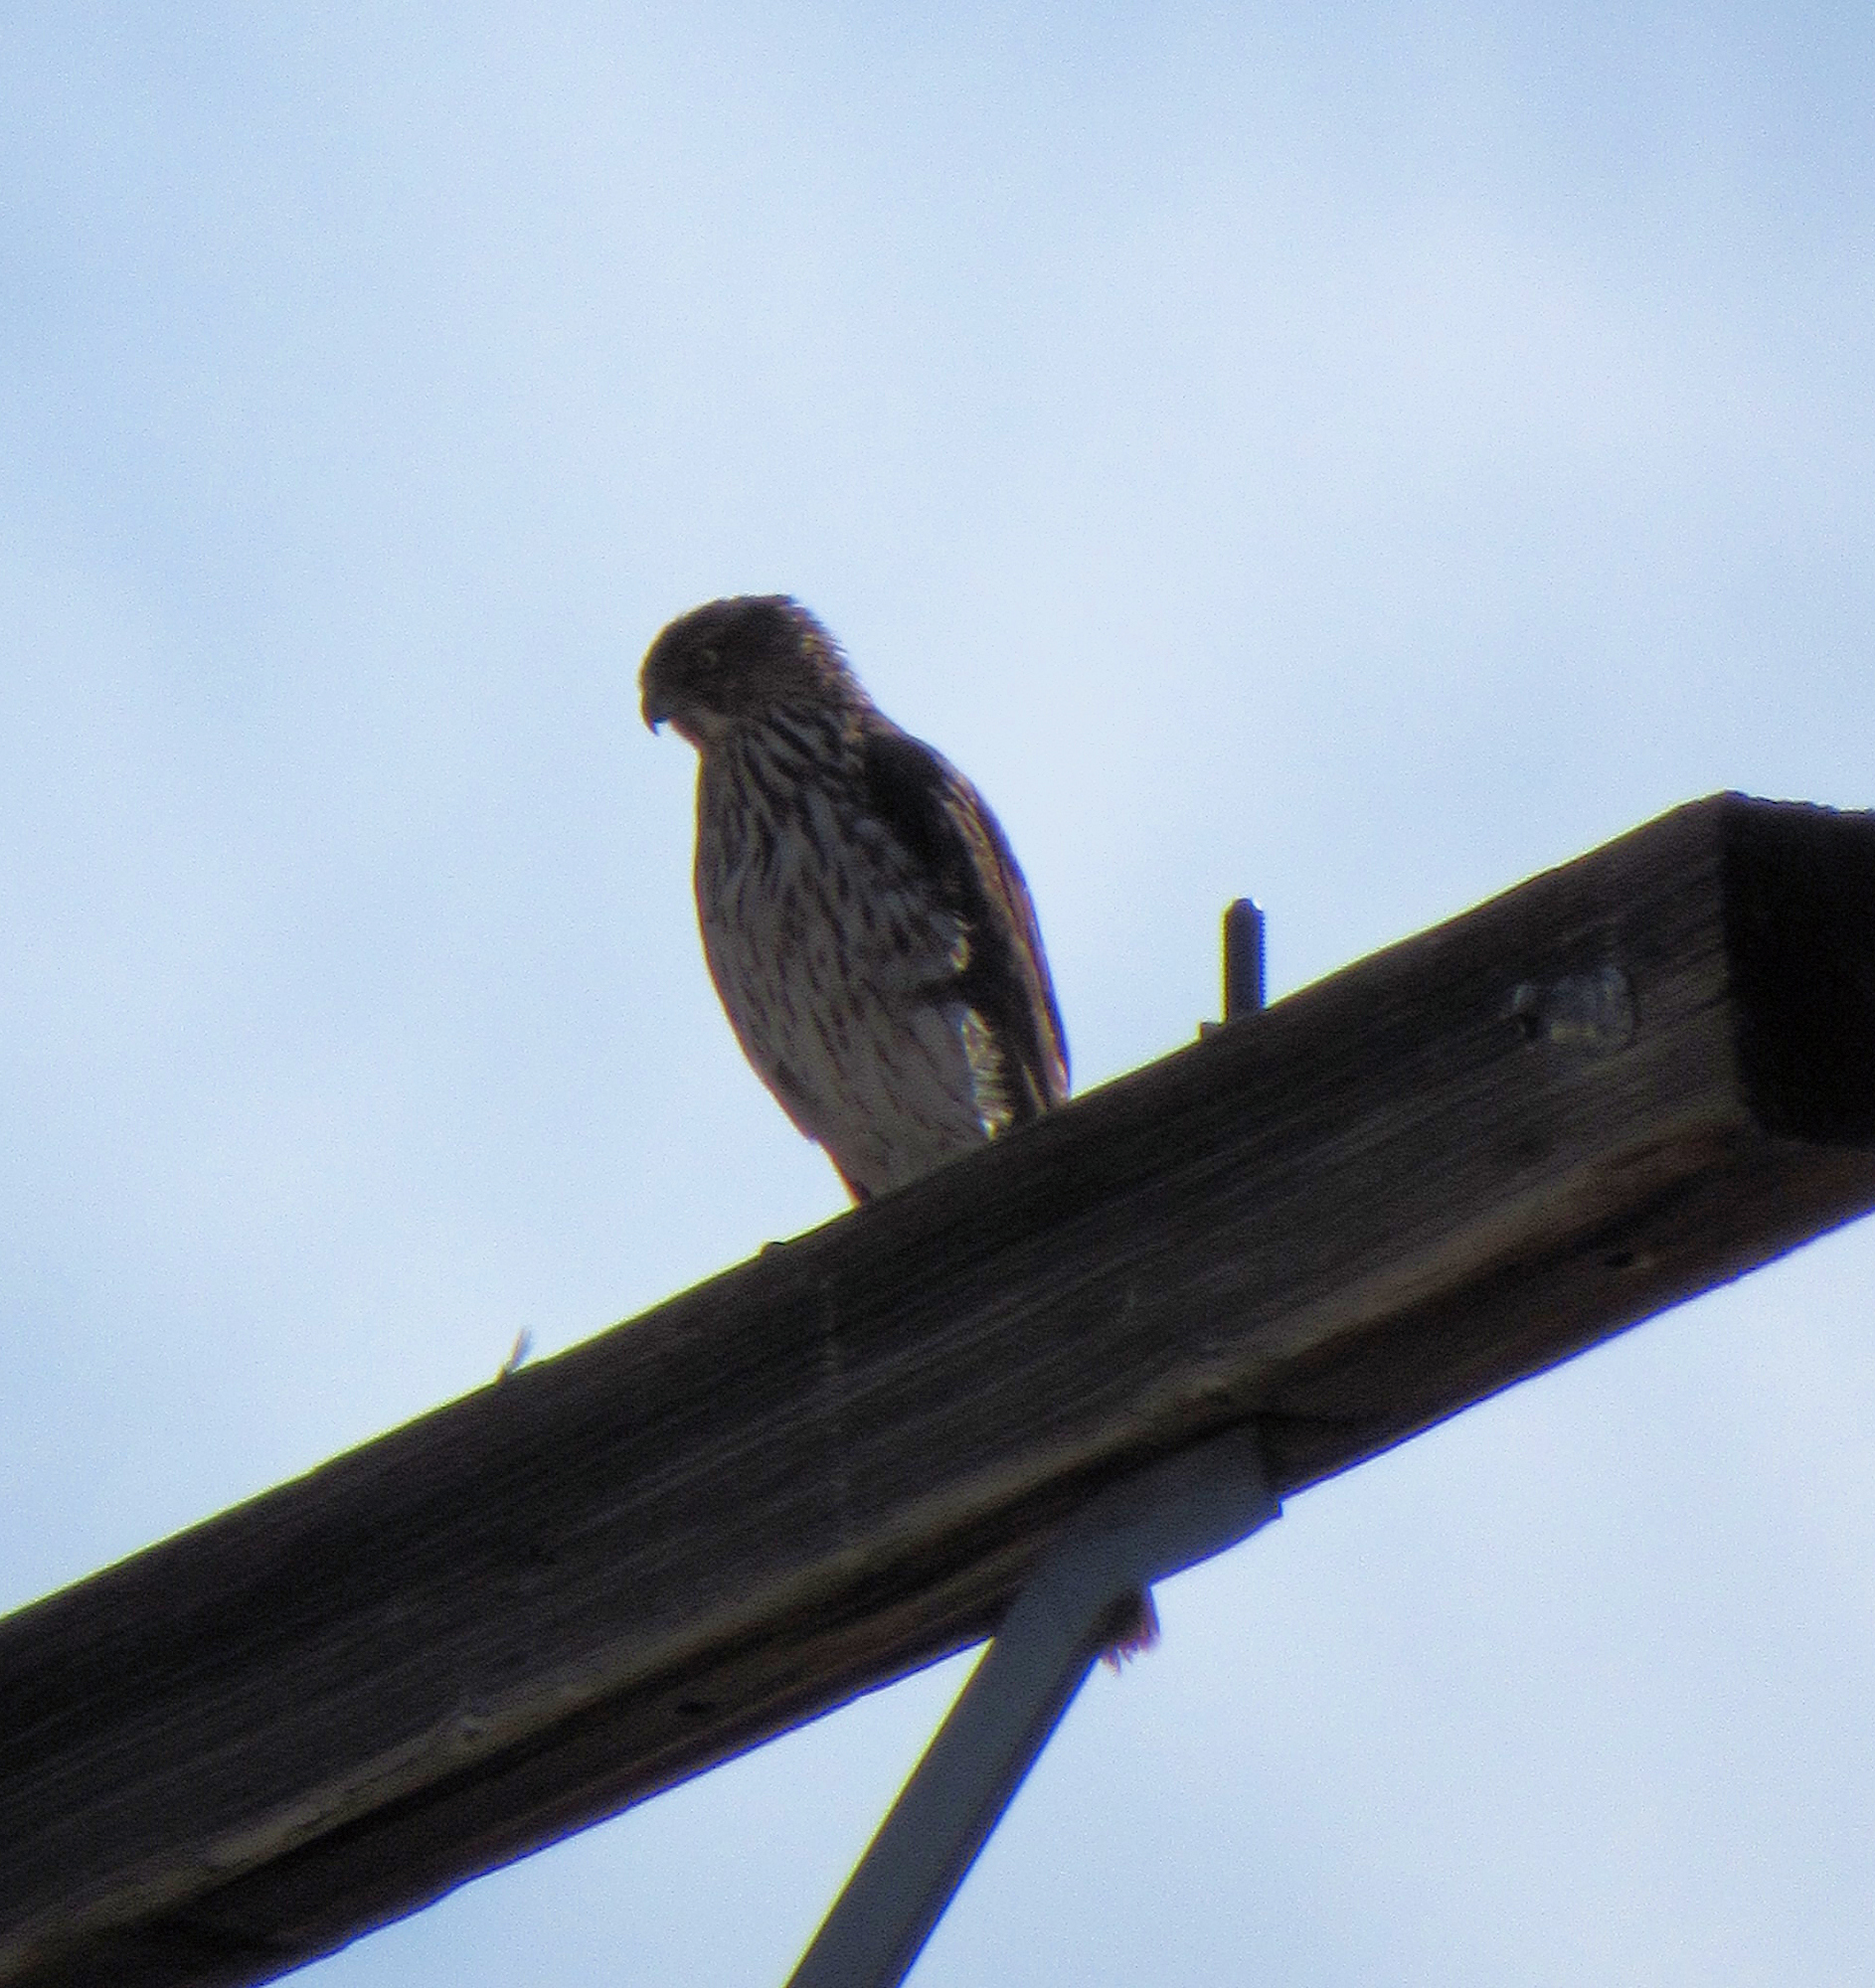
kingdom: Animalia
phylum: Chordata
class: Aves
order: Accipitriformes
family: Accipitridae
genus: Accipiter
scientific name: Accipiter cooperii
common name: Cooper's hawk
